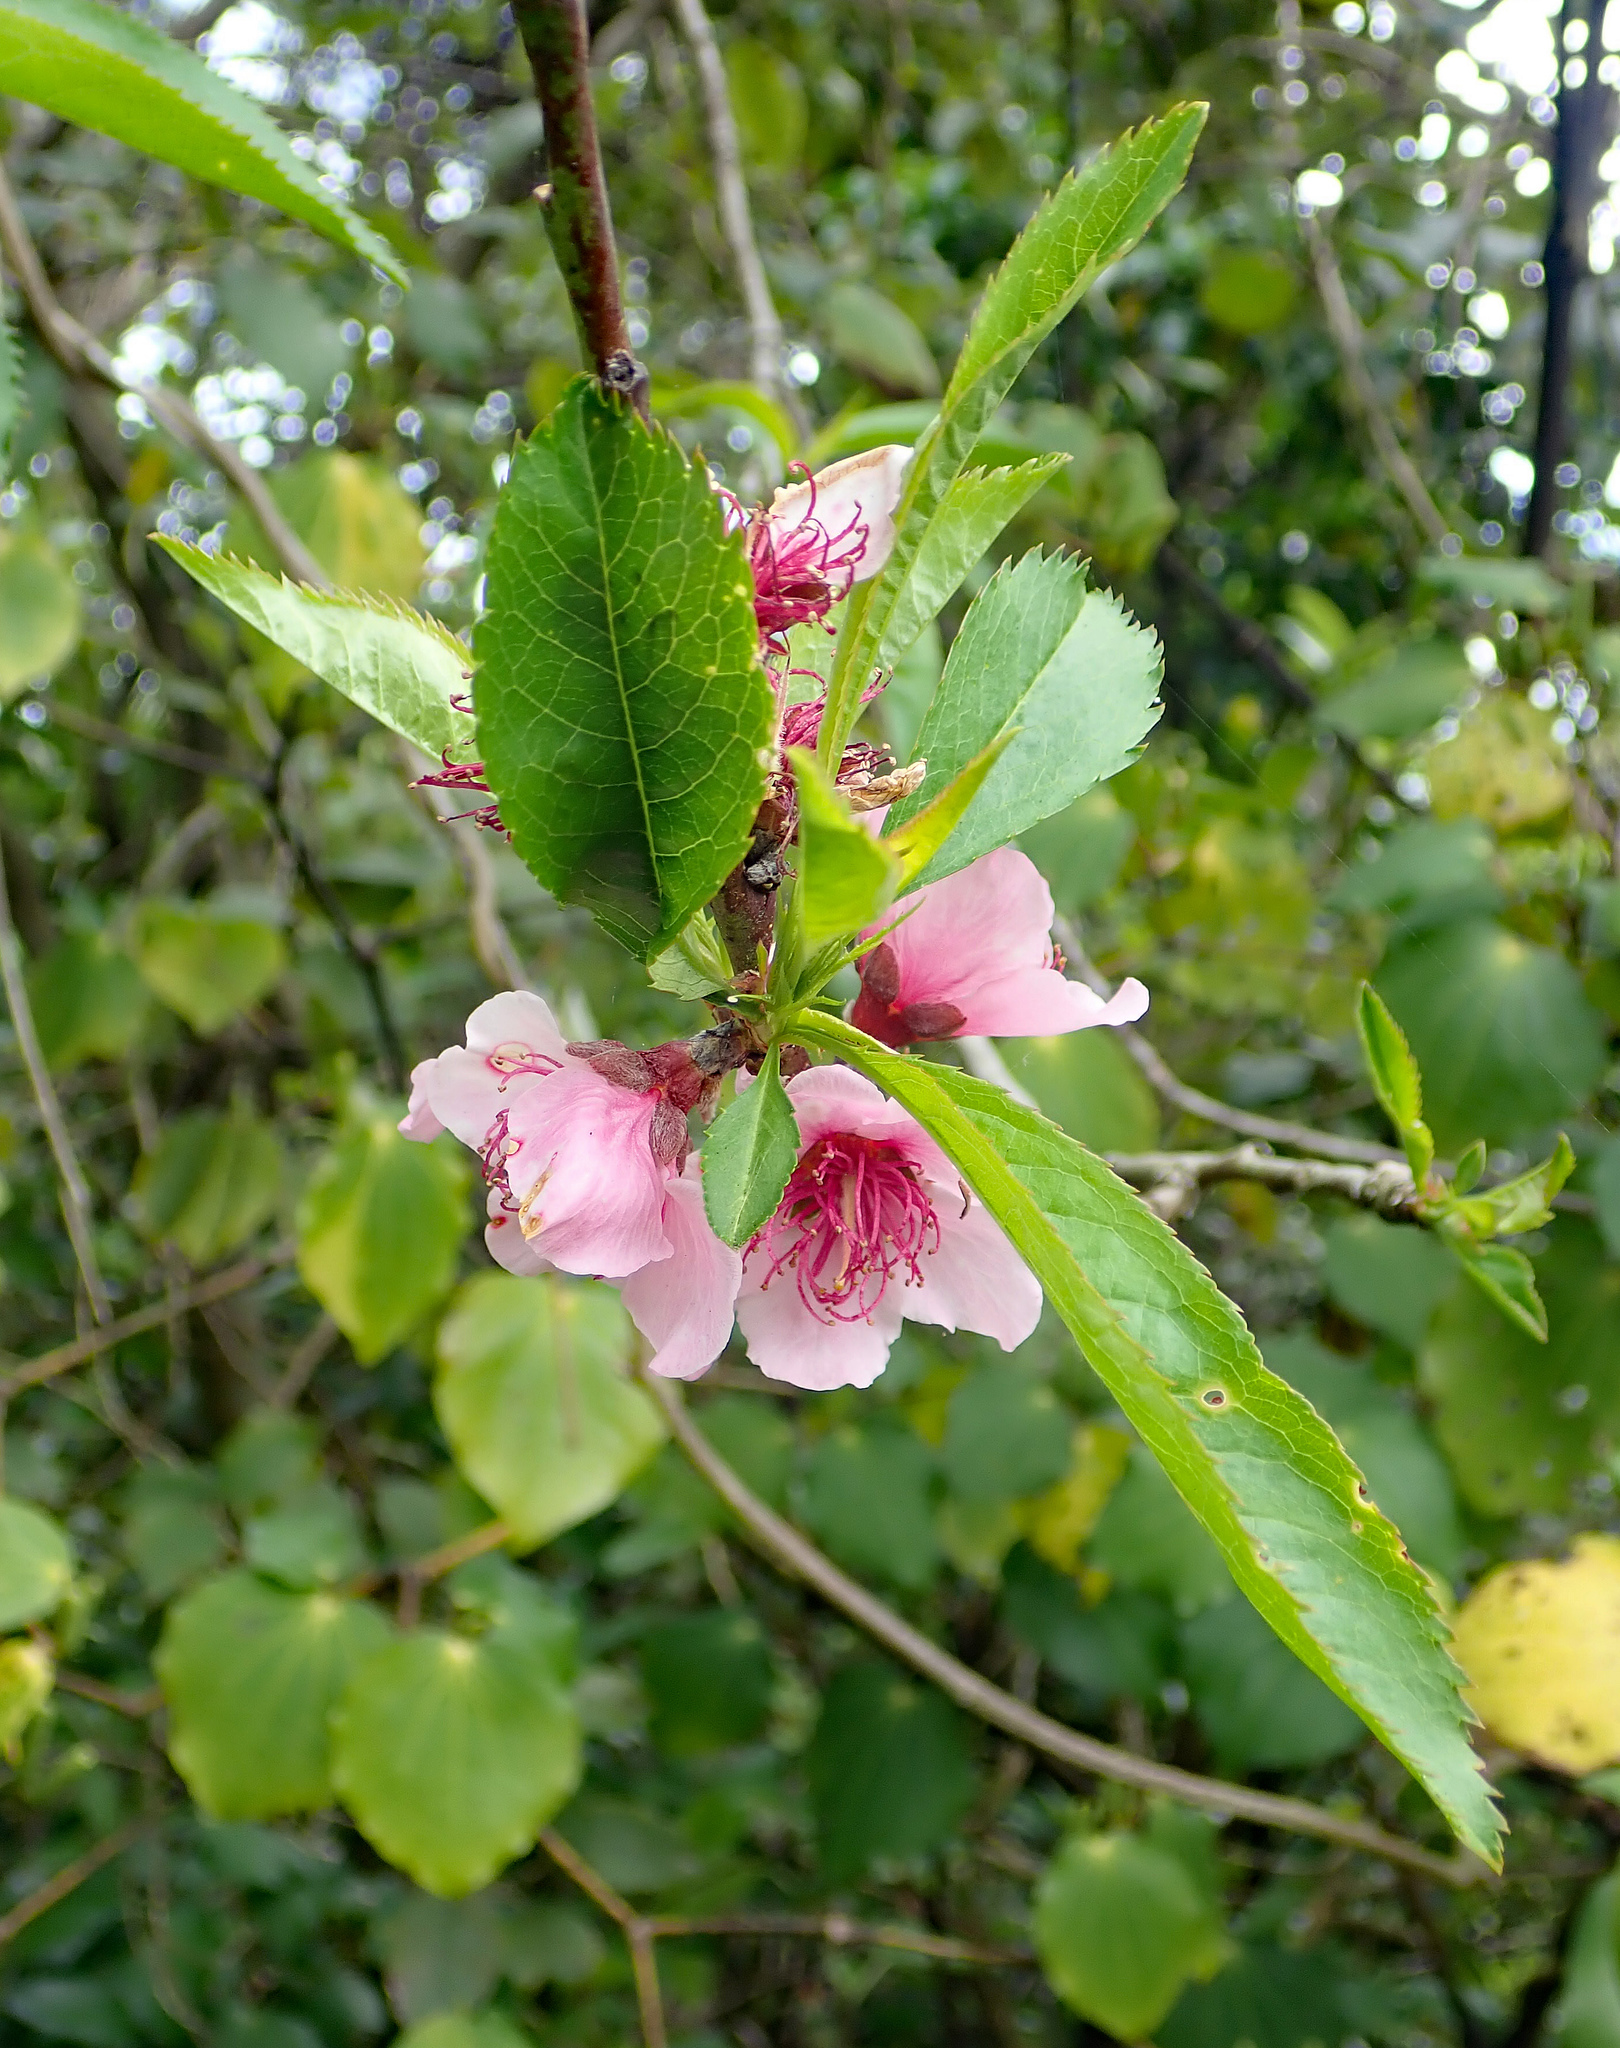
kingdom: Plantae
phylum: Tracheophyta
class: Magnoliopsida
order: Rosales
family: Rosaceae
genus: Prunus
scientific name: Prunus persica
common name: Peach
